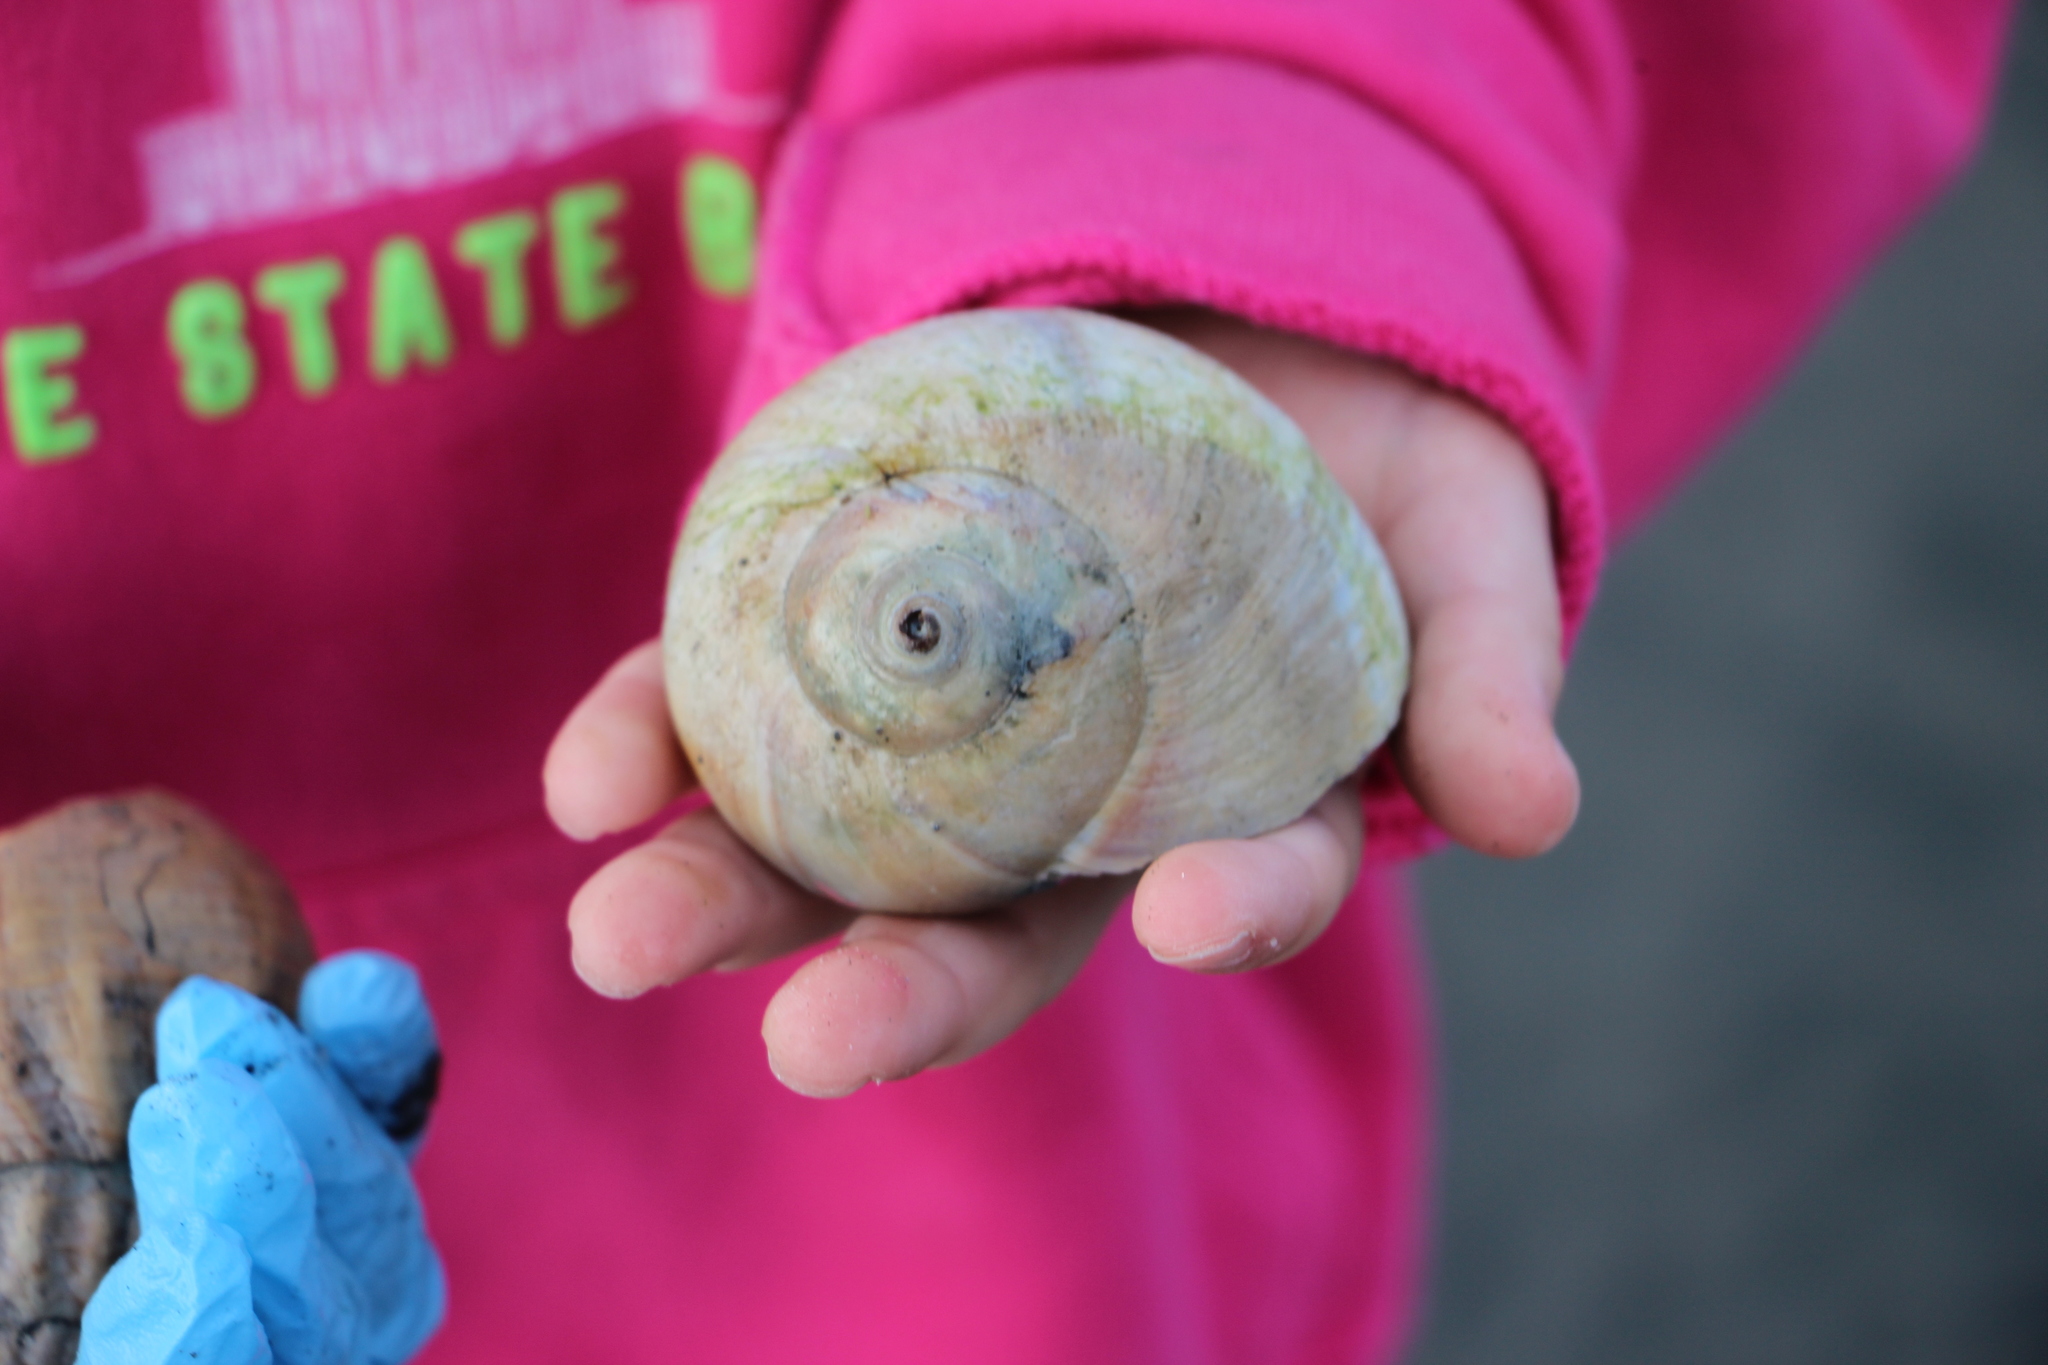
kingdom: Animalia
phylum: Mollusca
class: Gastropoda
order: Littorinimorpha
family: Naticidae
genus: Euspira
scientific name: Euspira heros
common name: Common northern moonsnail
